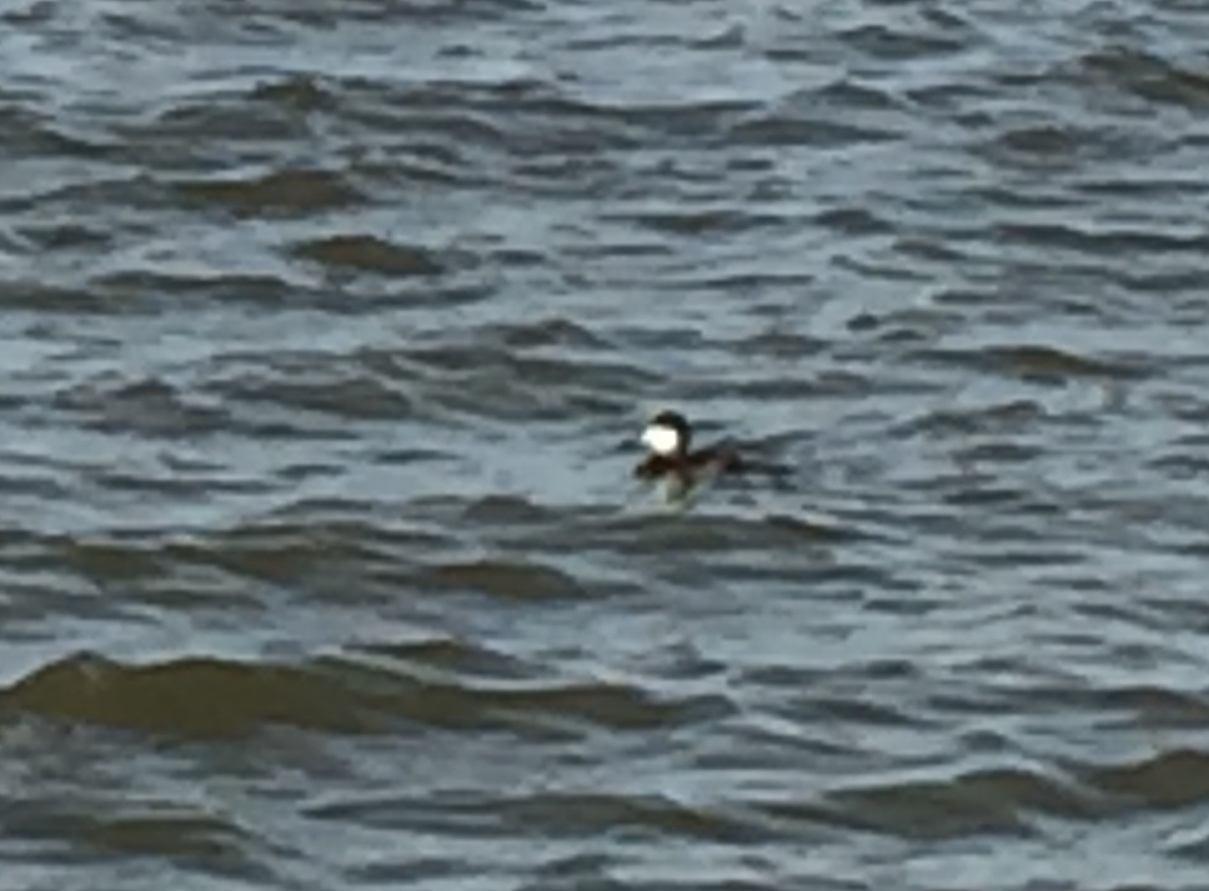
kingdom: Animalia
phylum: Chordata
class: Aves
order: Anseriformes
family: Anatidae
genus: Oxyura
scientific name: Oxyura jamaicensis
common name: Ruddy duck
